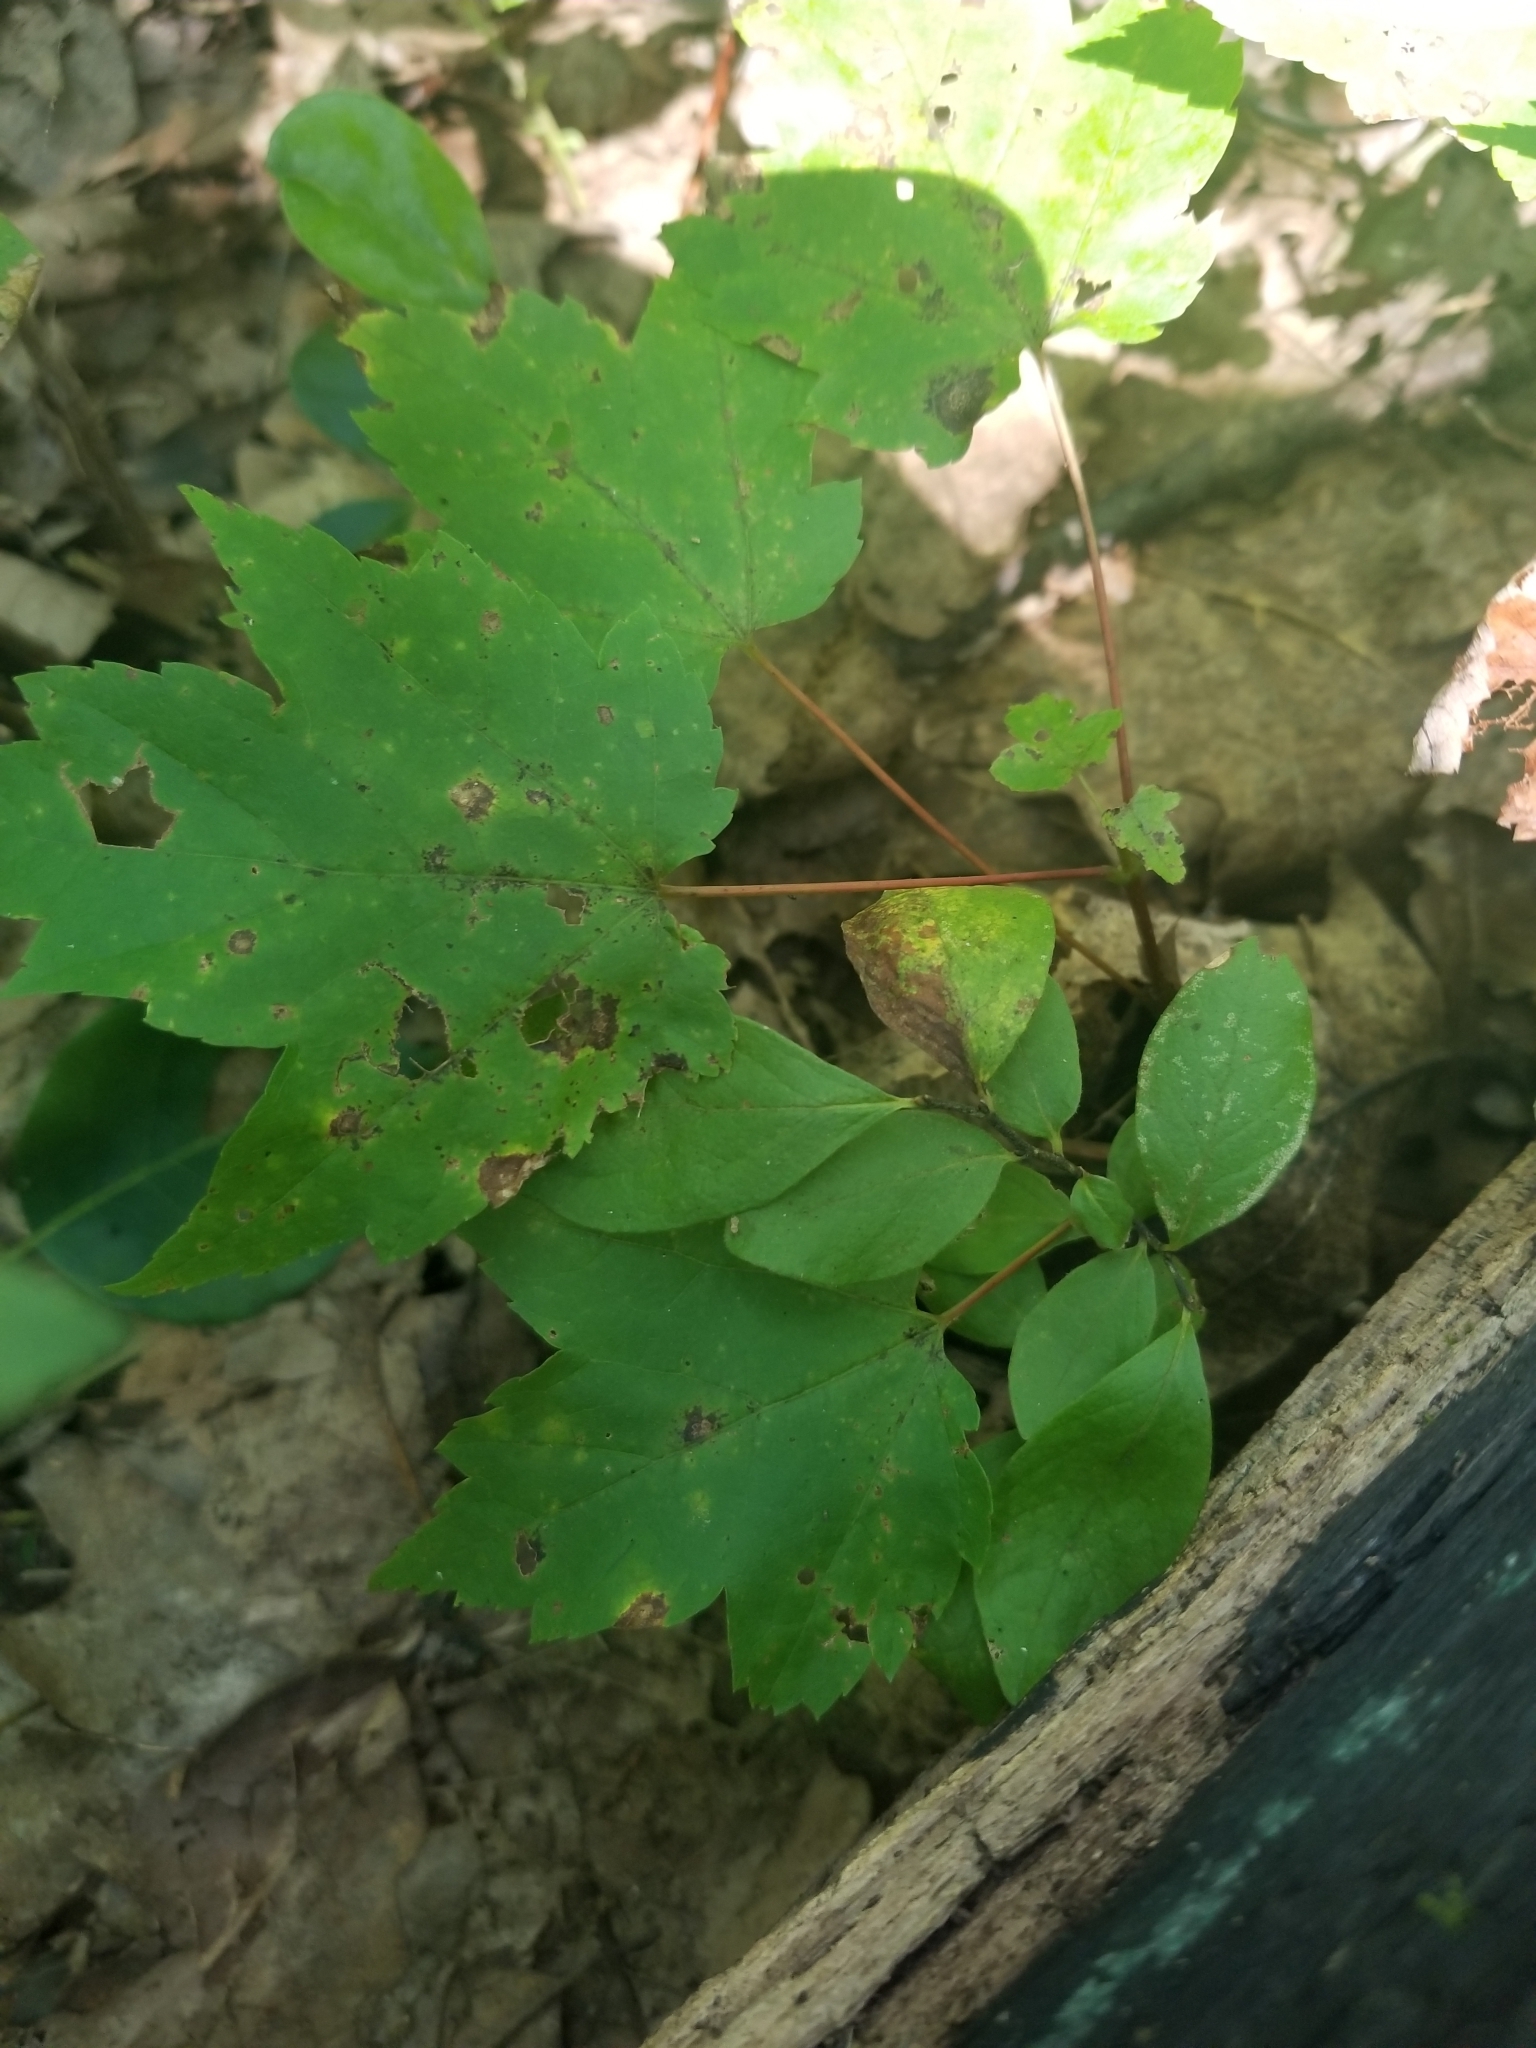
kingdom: Plantae
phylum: Tracheophyta
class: Magnoliopsida
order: Sapindales
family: Sapindaceae
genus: Acer
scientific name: Acer rubrum
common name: Red maple
